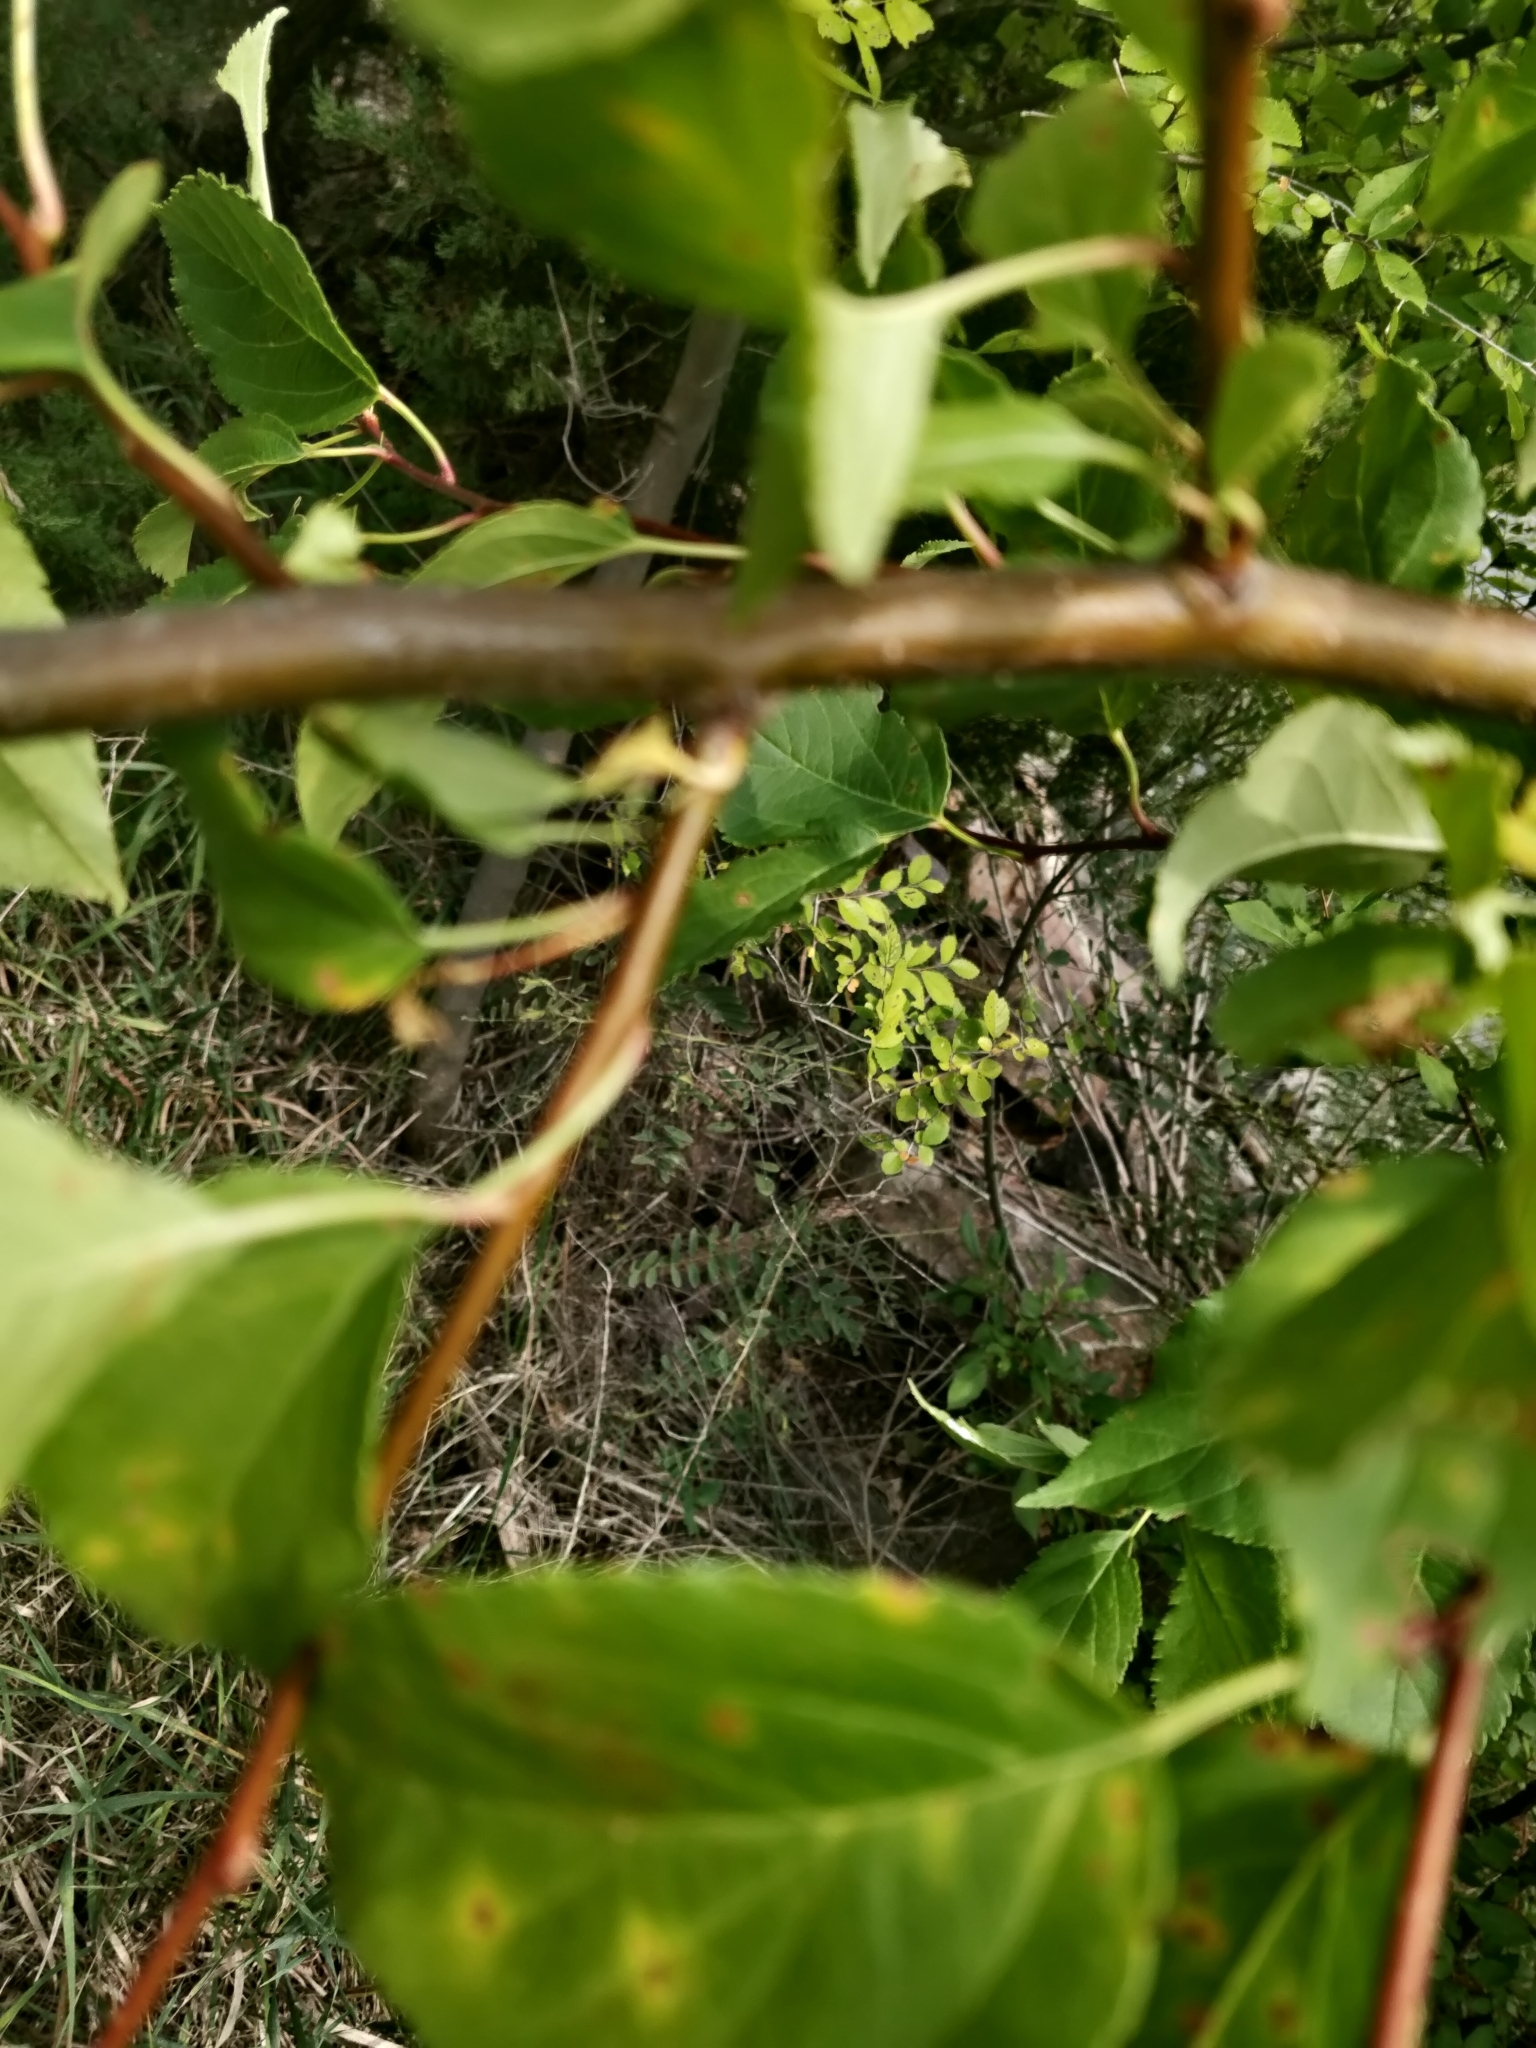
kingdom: Animalia
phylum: Arthropoda
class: Insecta
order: Lepidoptera
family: Nymphalidae
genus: Speyeria
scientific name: Speyeria idalia
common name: Regal fritillary
